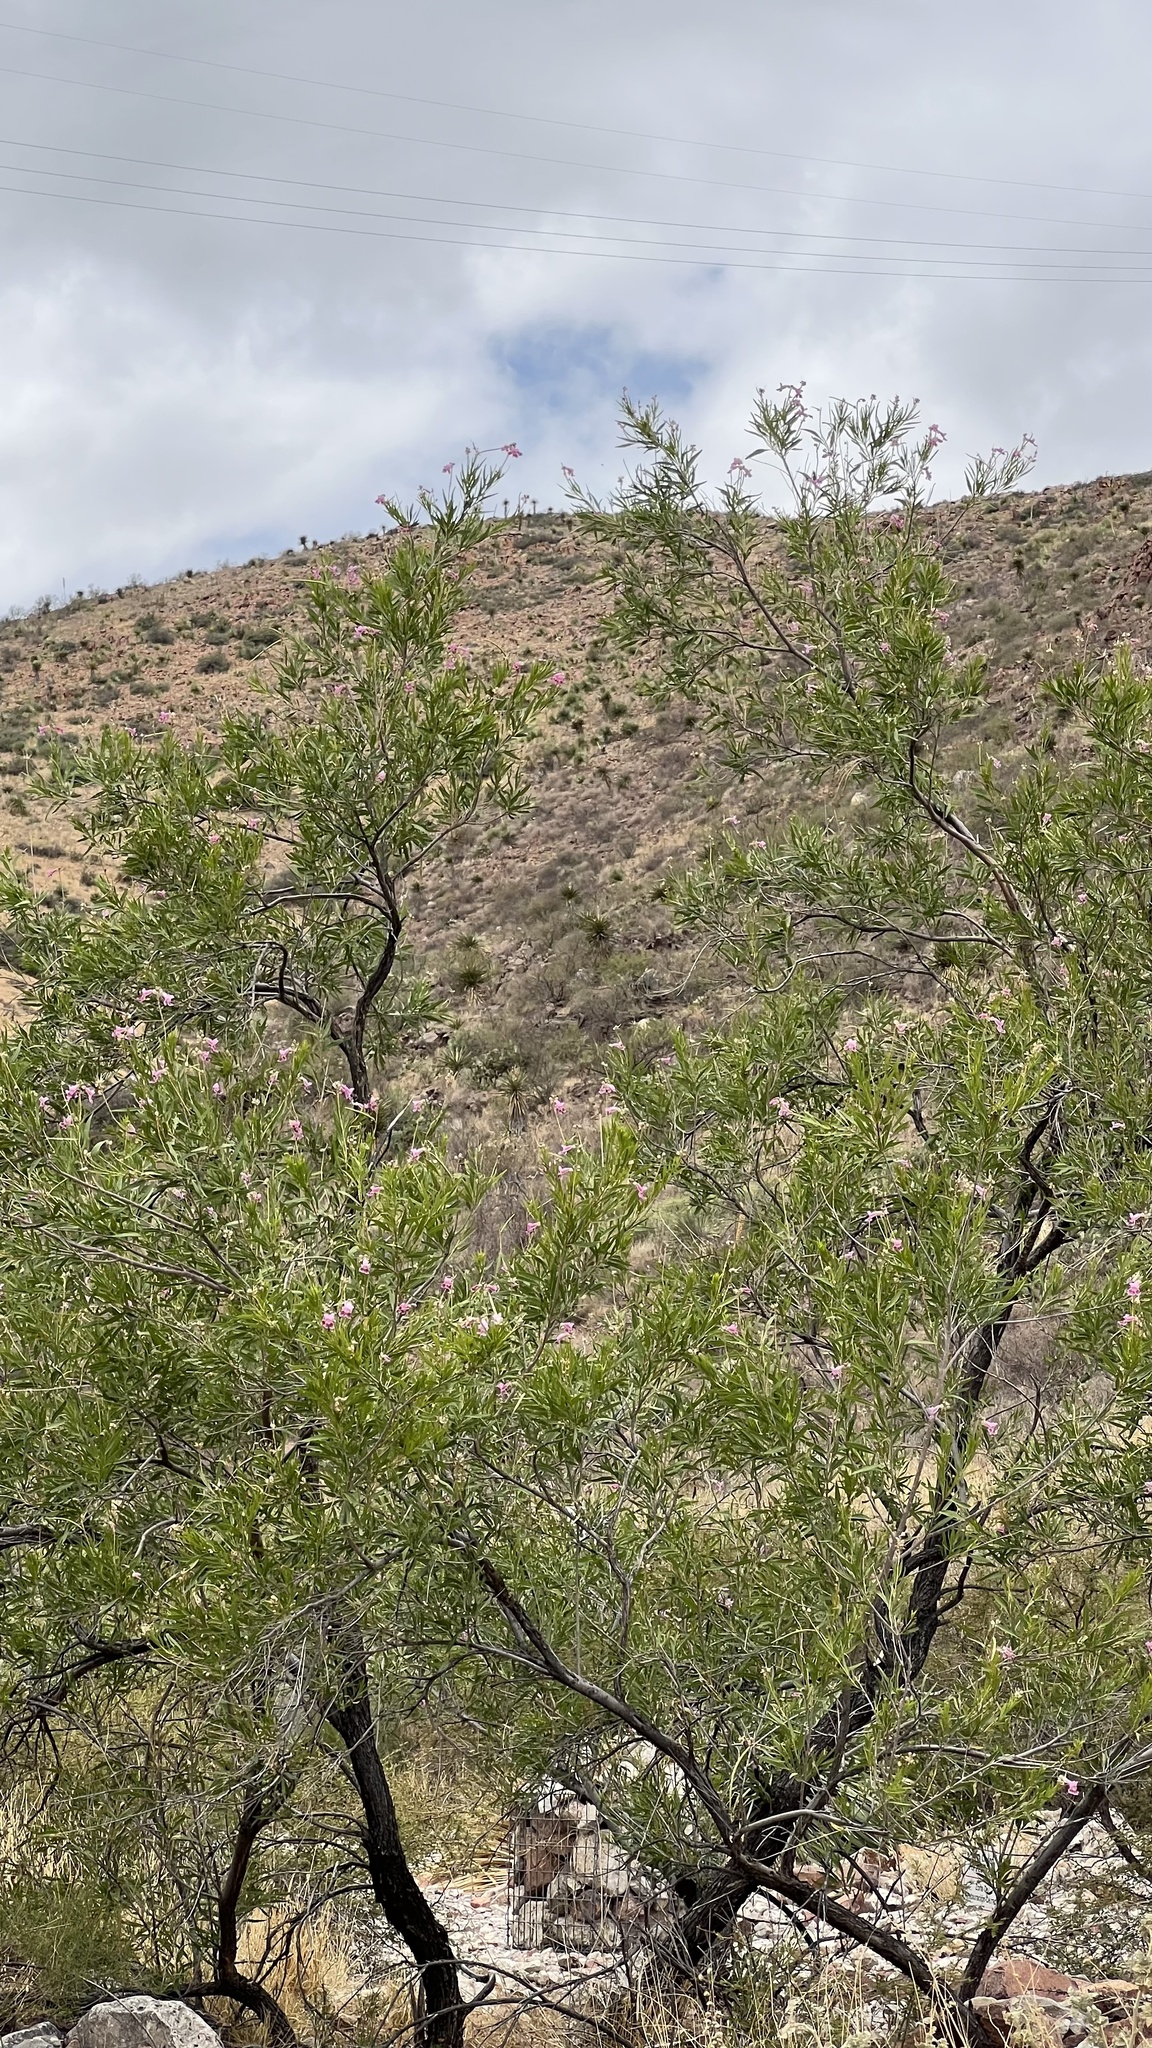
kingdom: Plantae
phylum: Tracheophyta
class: Magnoliopsida
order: Lamiales
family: Bignoniaceae
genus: Chilopsis
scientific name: Chilopsis linearis
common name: Desert-willow
